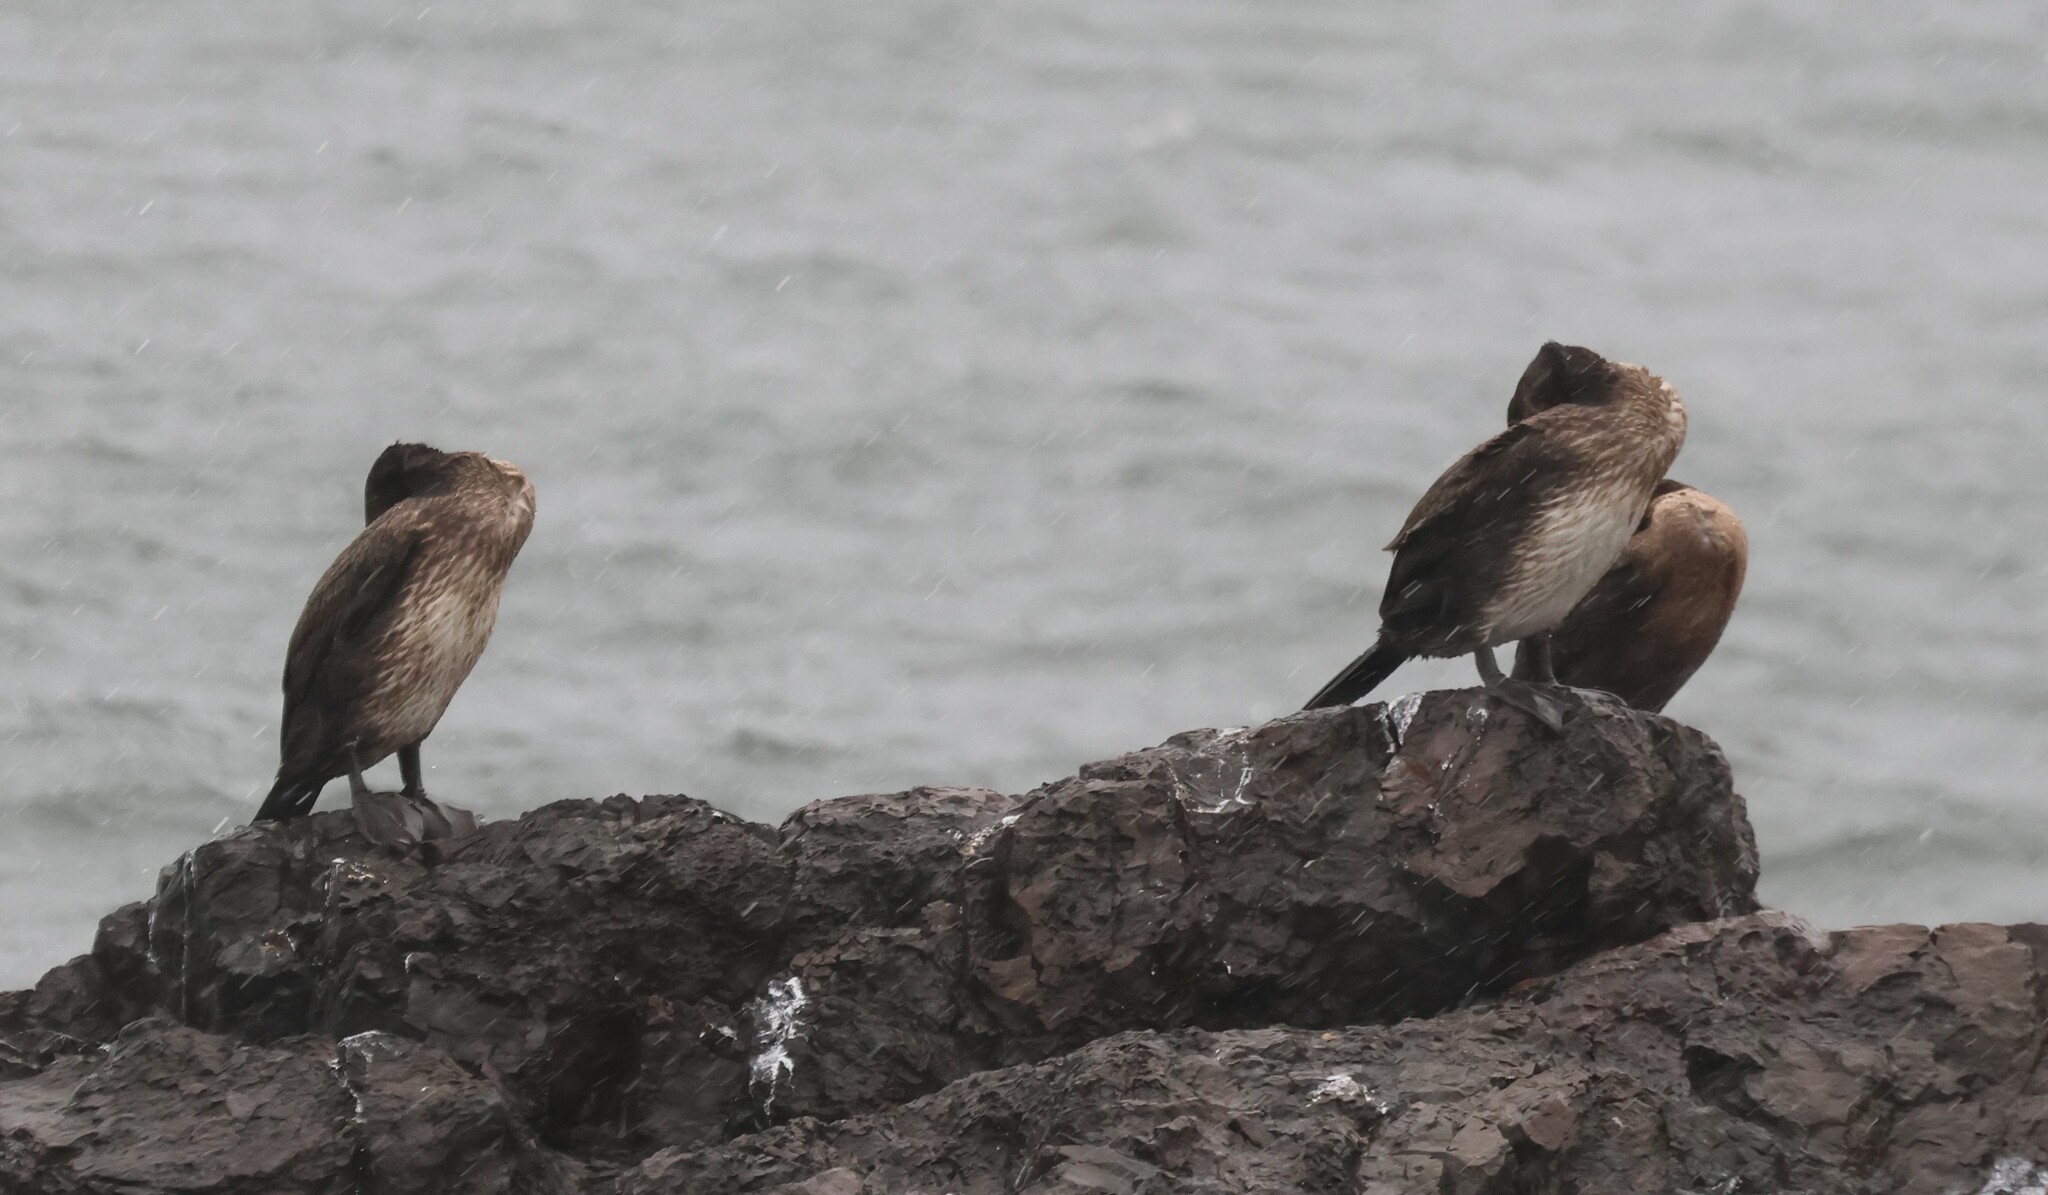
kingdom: Animalia
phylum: Chordata
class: Aves
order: Suliformes
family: Phalacrocoracidae
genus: Phalacrocorax
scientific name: Phalacrocorax carbo
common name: Great cormorant
